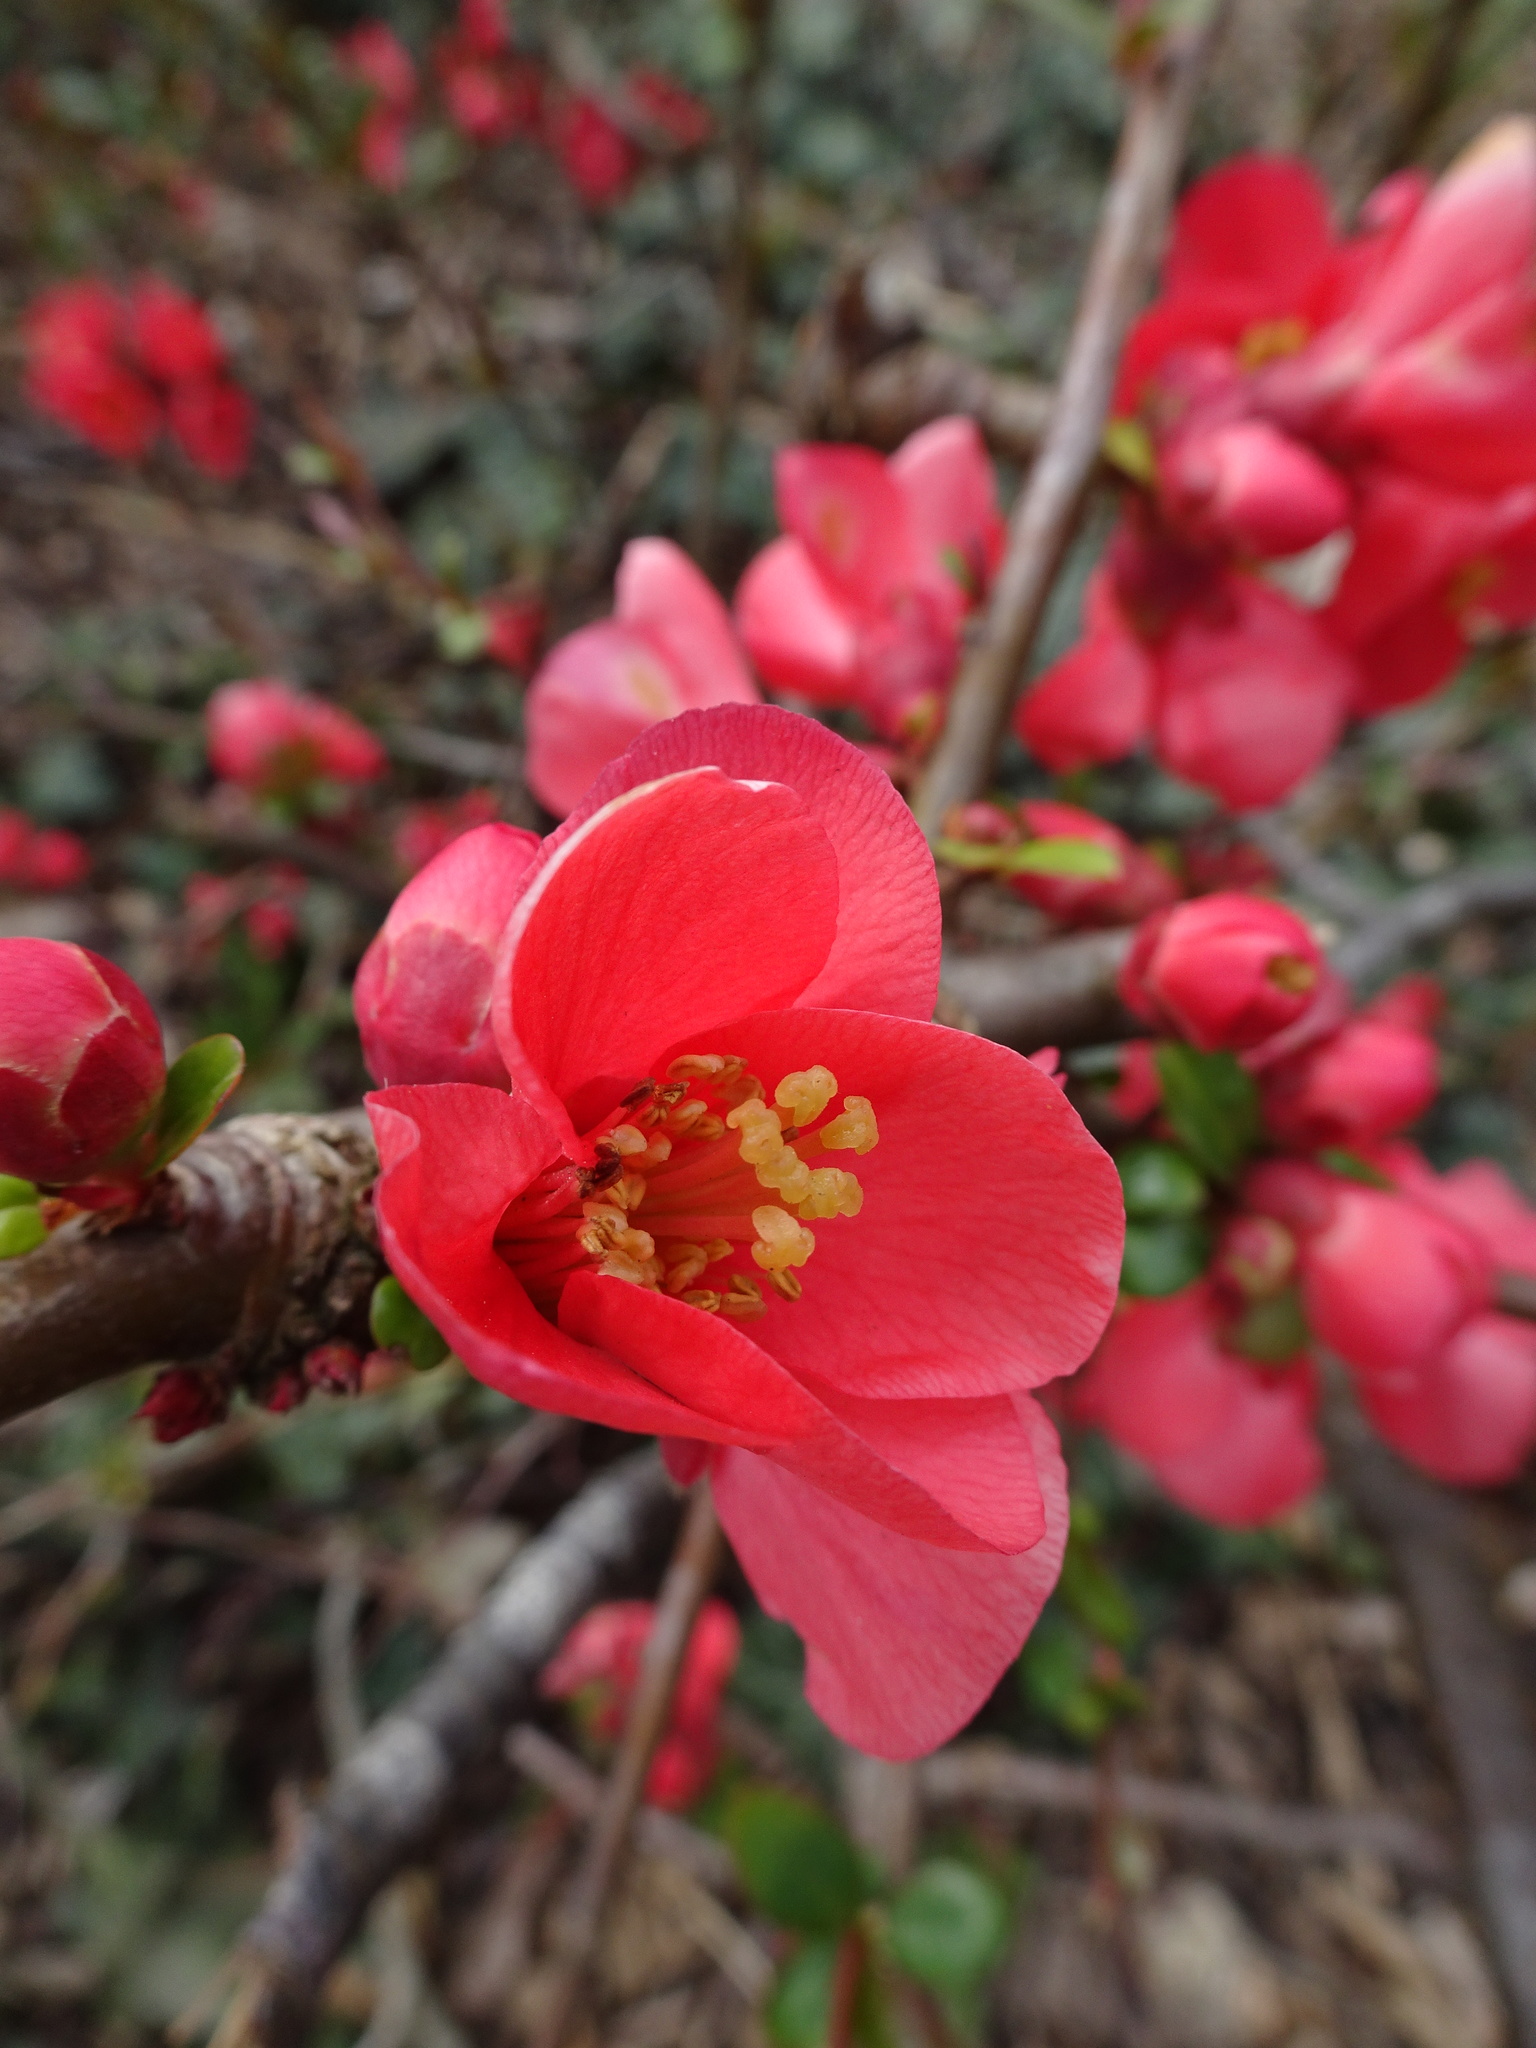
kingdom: Plantae
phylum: Tracheophyta
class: Magnoliopsida
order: Rosales
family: Rosaceae
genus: Chaenomeles
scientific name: Chaenomeles speciosa
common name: Japanese quince
